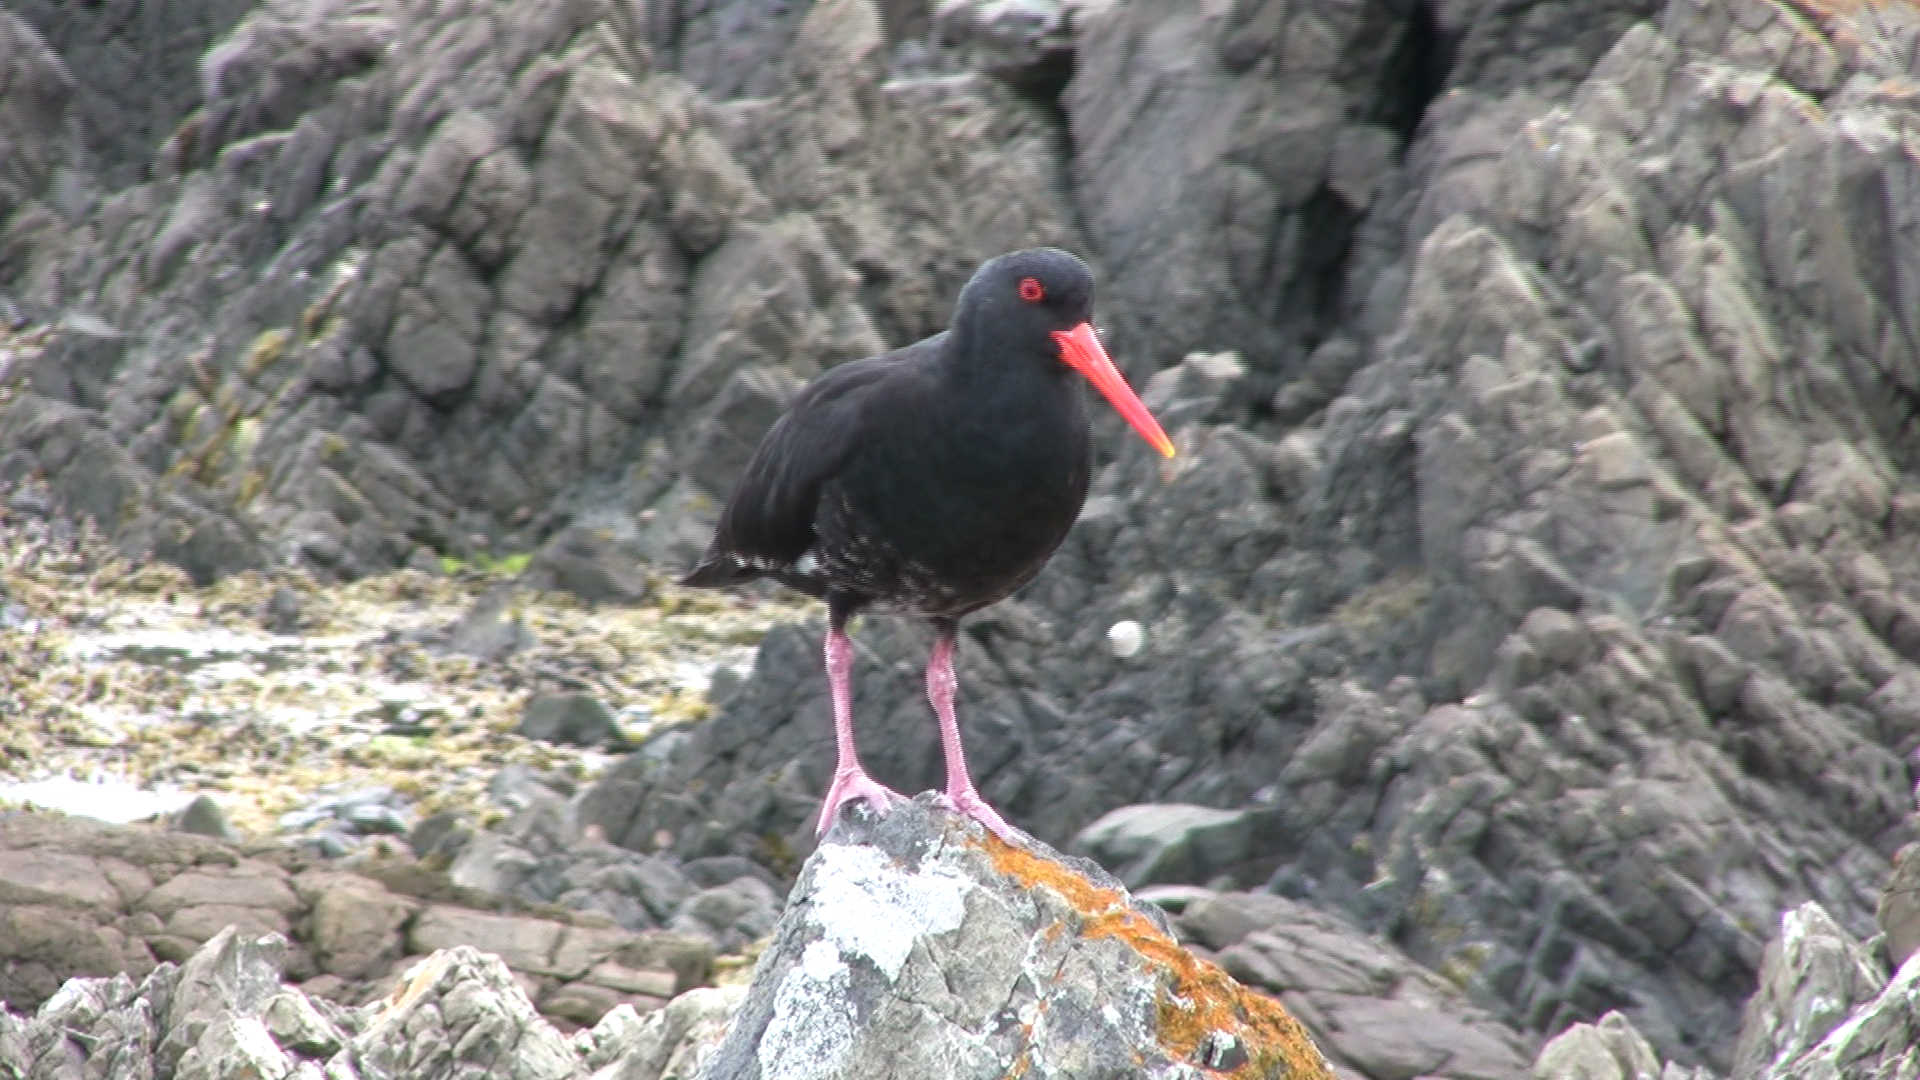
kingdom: Animalia
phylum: Chordata
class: Aves
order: Charadriiformes
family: Haematopodidae
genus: Haematopus
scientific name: Haematopus unicolor
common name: Variable oystercatcher
